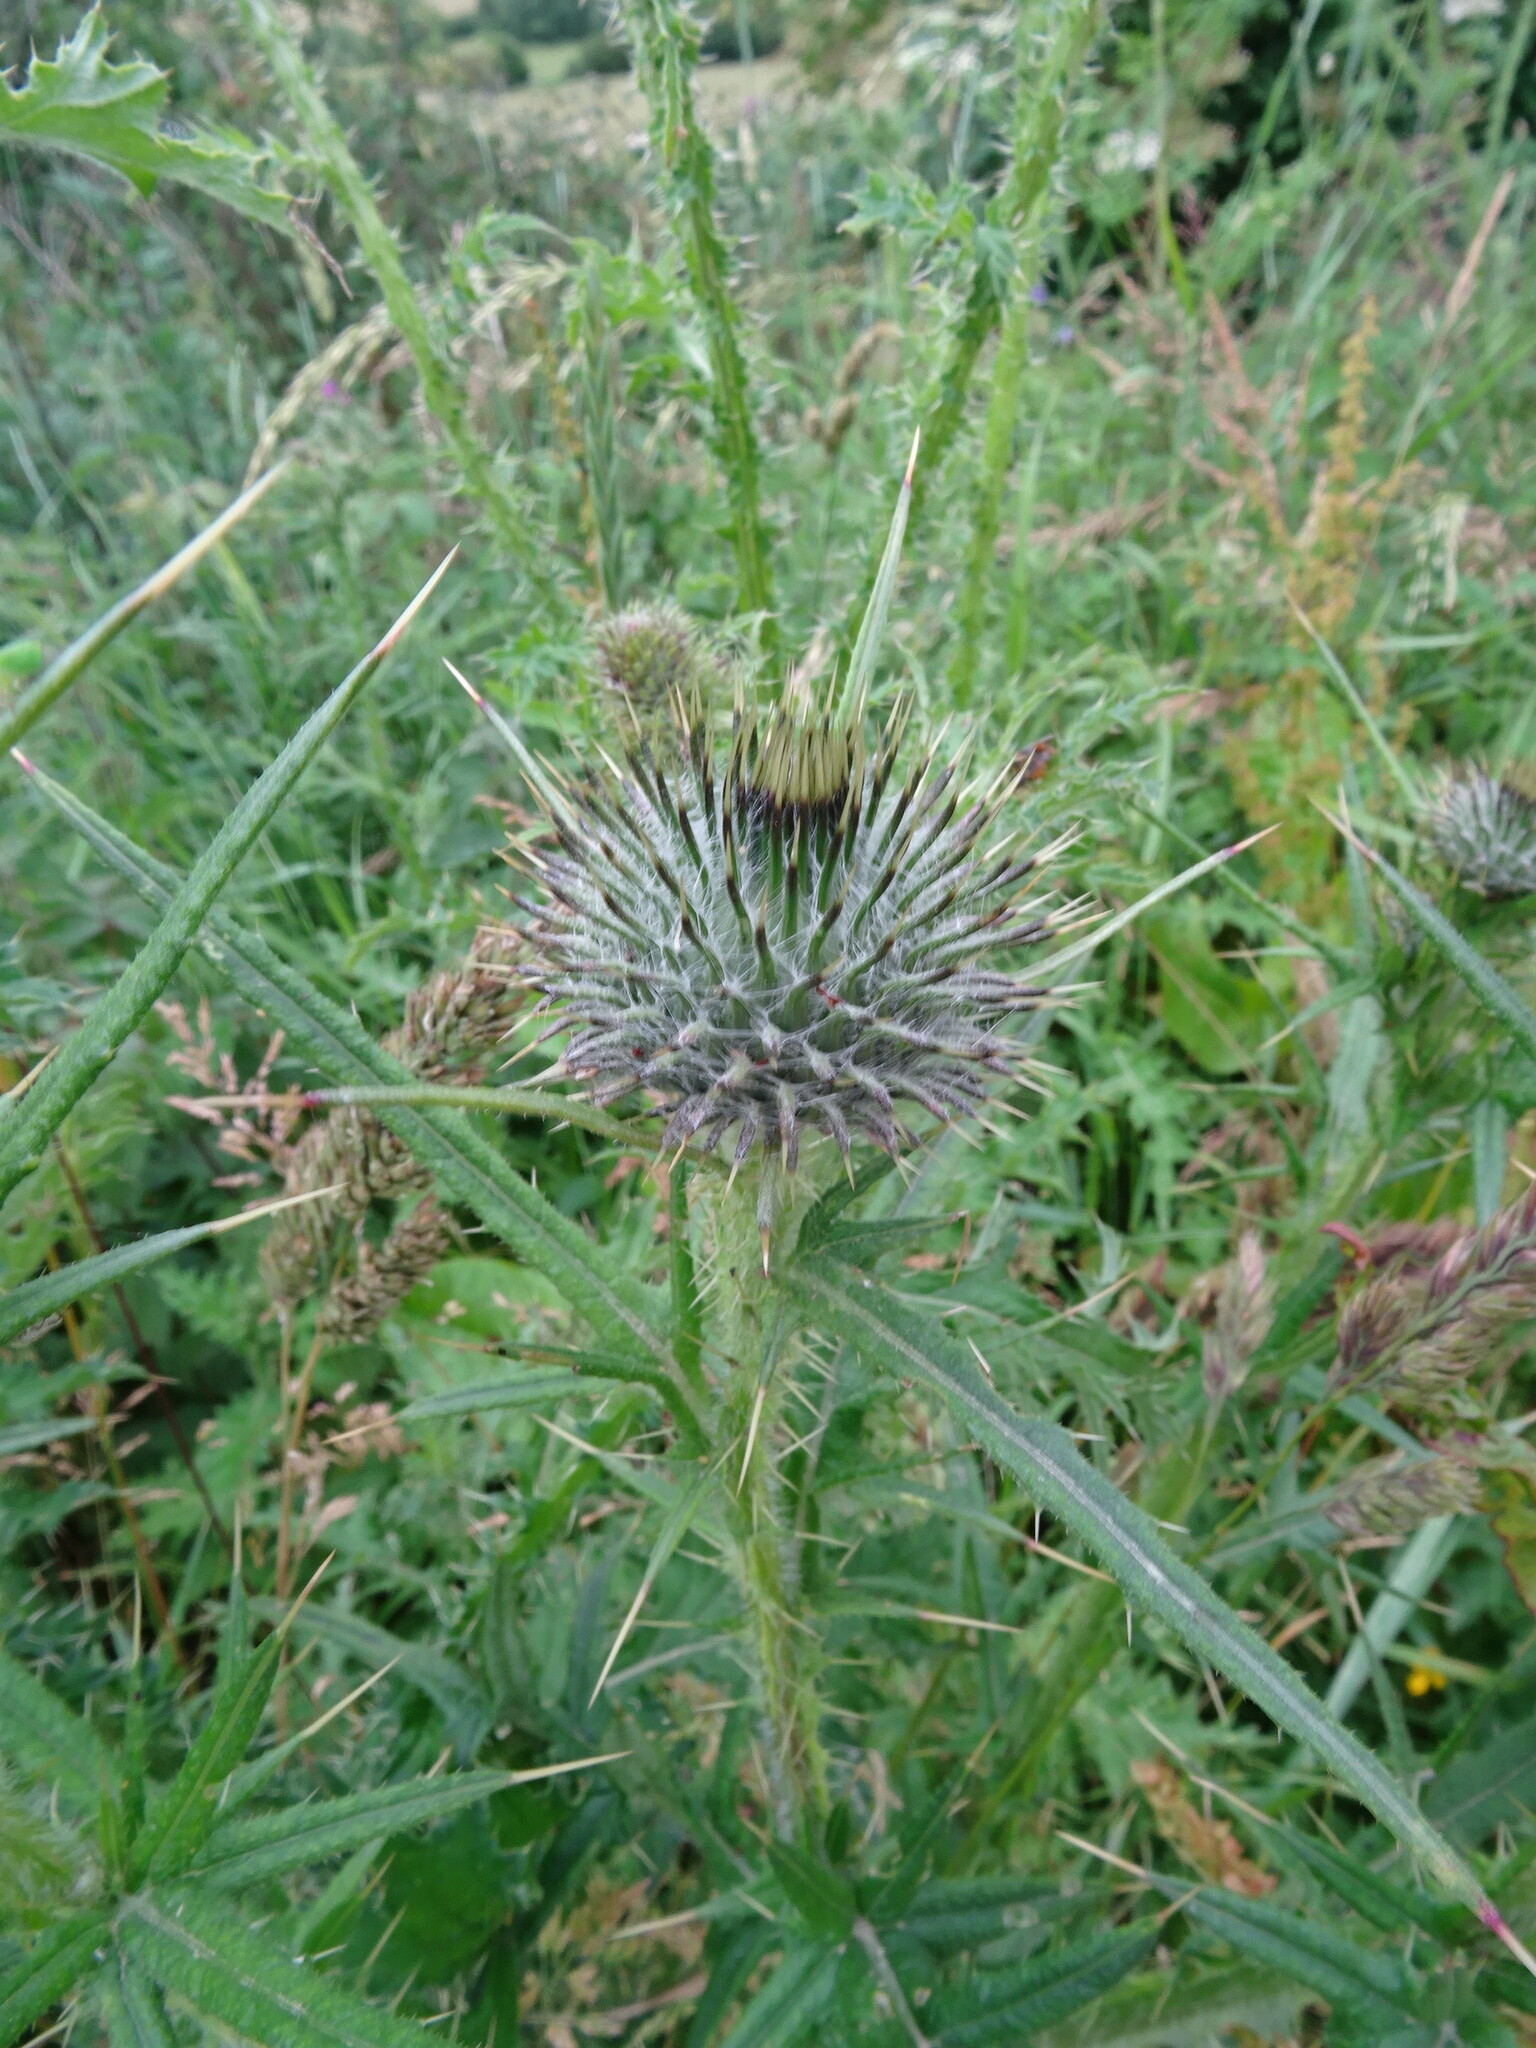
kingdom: Plantae
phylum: Tracheophyta
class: Magnoliopsida
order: Asterales
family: Asteraceae
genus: Cirsium
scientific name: Cirsium vulgare
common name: Bull thistle
